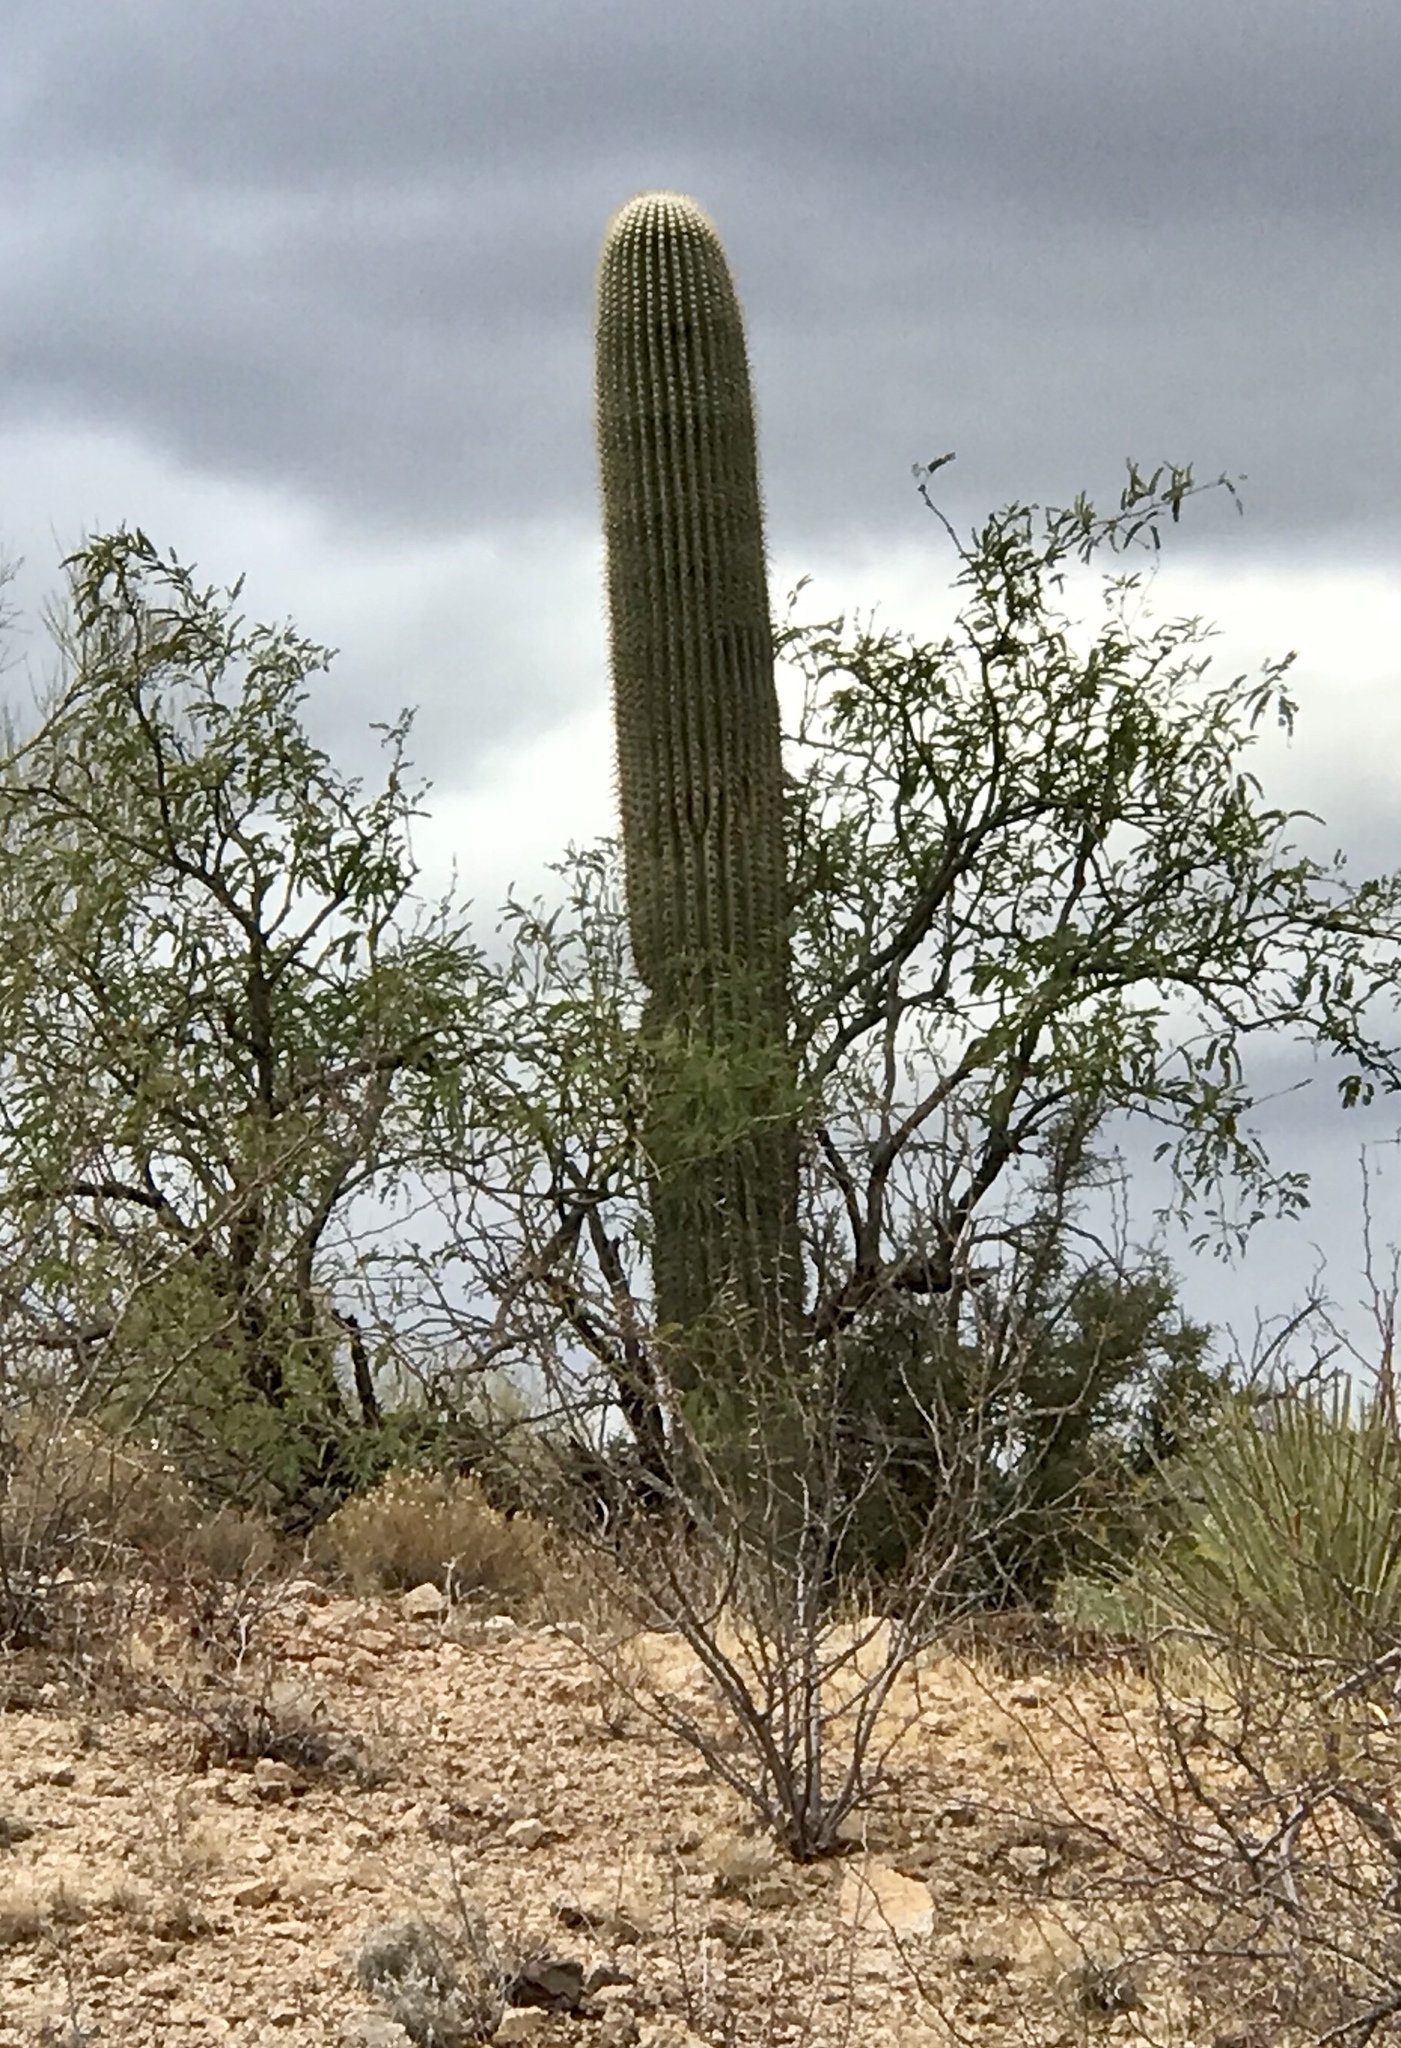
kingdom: Plantae
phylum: Tracheophyta
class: Magnoliopsida
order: Fabales
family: Fabaceae
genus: Prosopis
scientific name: Prosopis velutina
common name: Velvet mesquite
